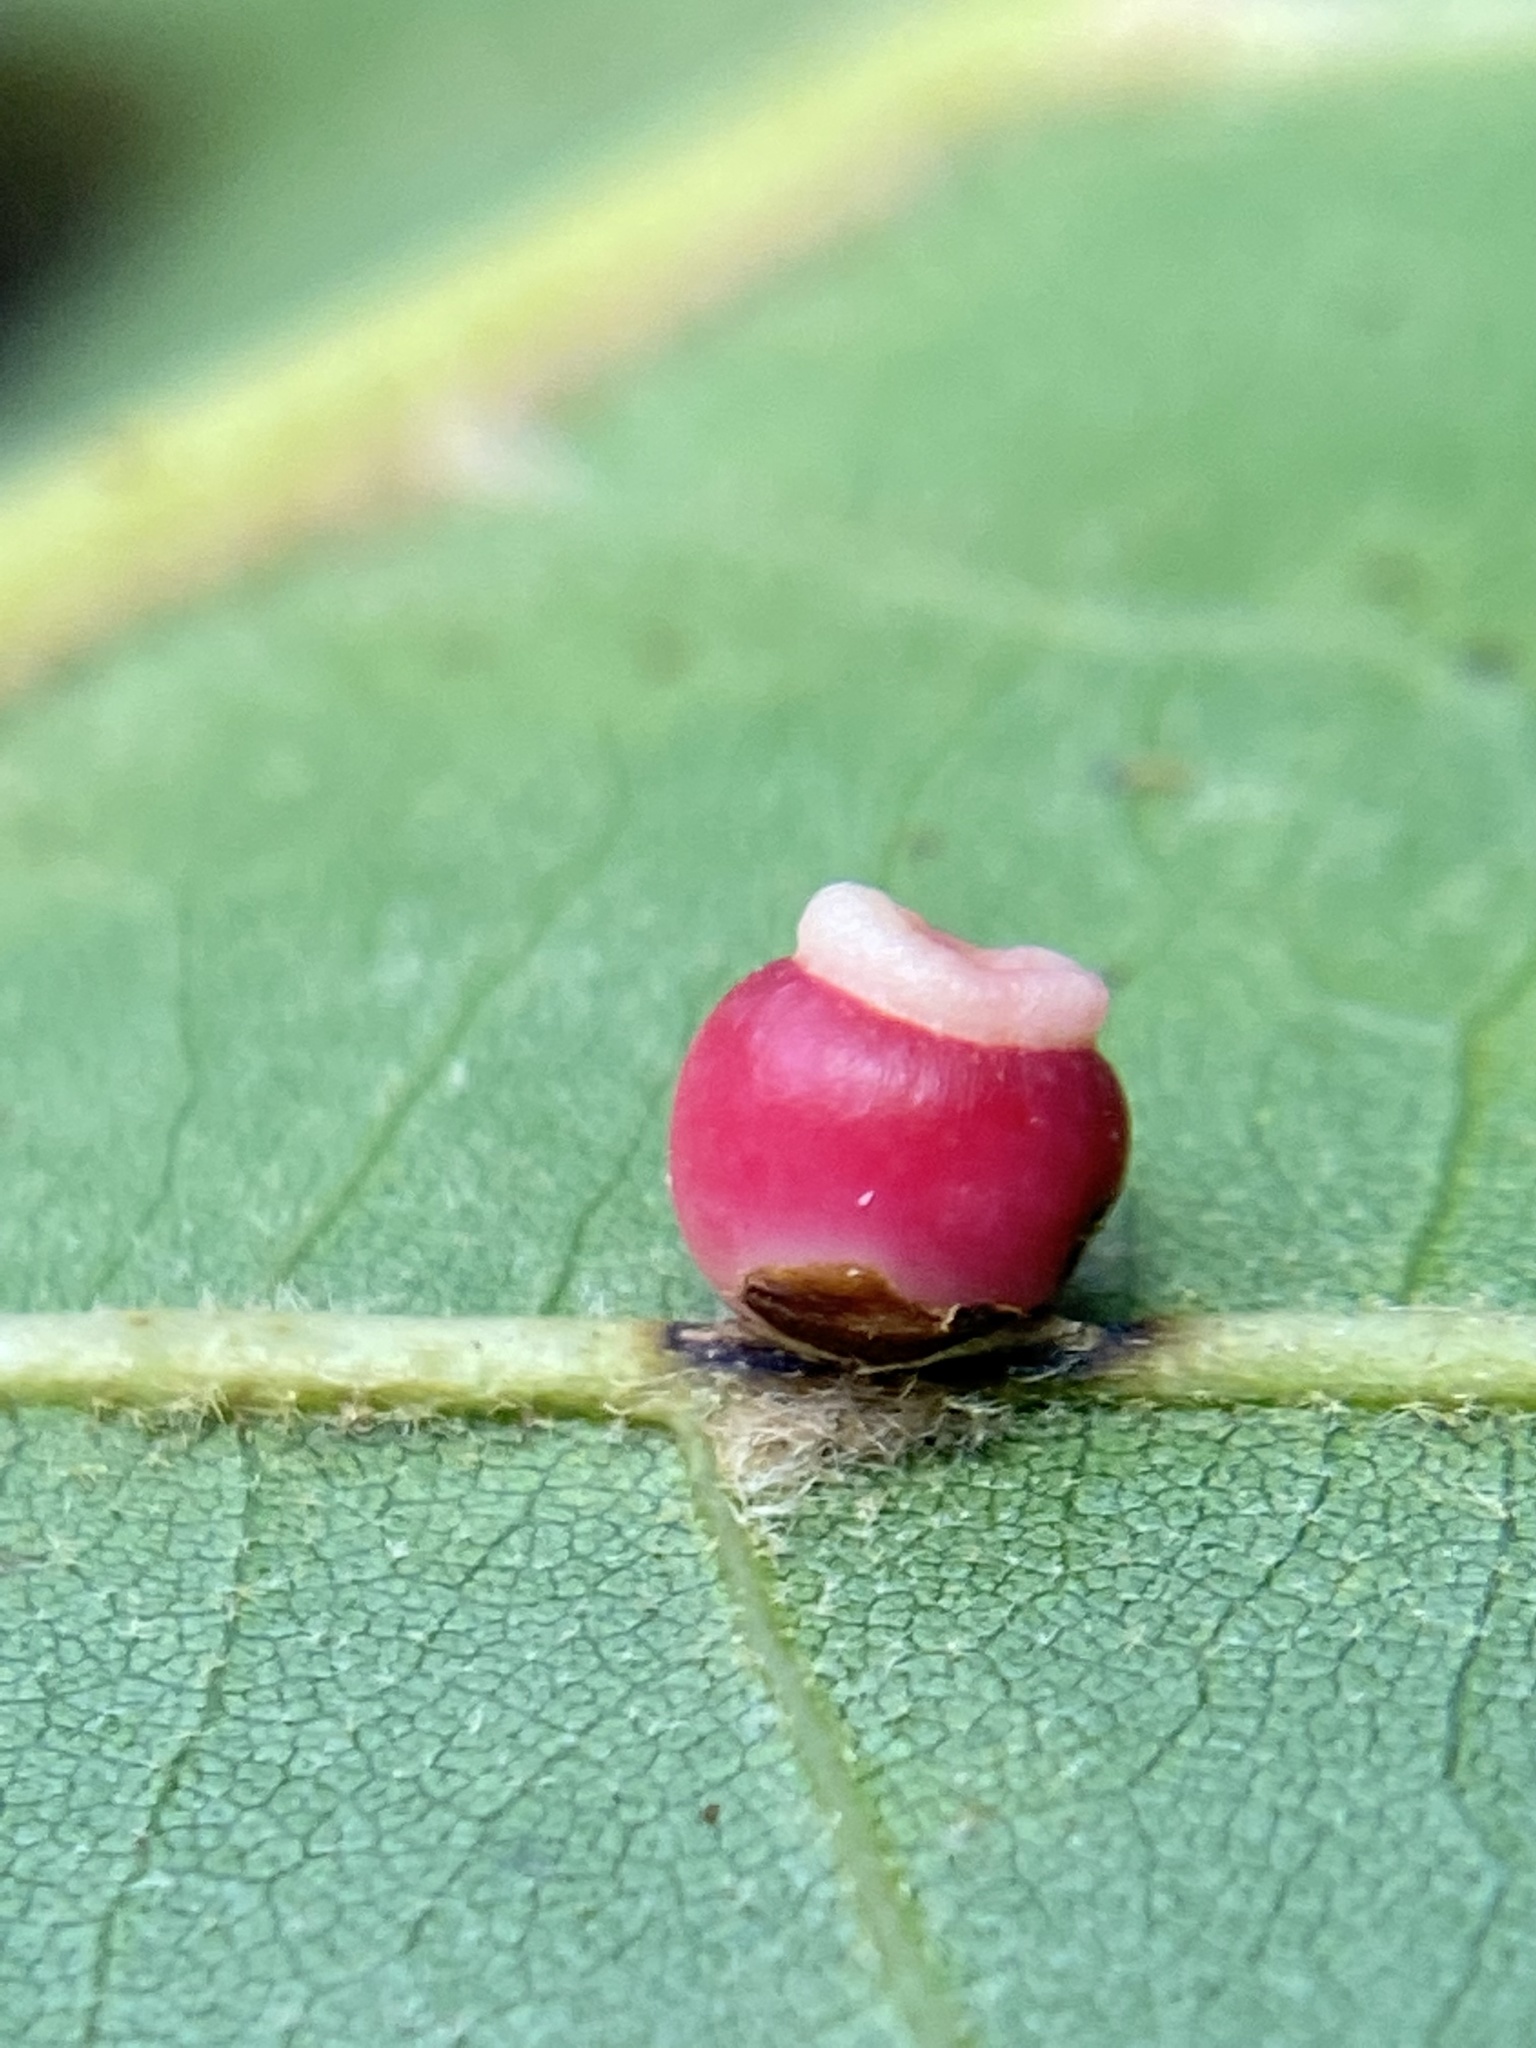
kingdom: Animalia
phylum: Arthropoda
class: Insecta
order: Hymenoptera
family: Cynipidae
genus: Kokkocynips
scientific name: Kokkocynips rileyi
